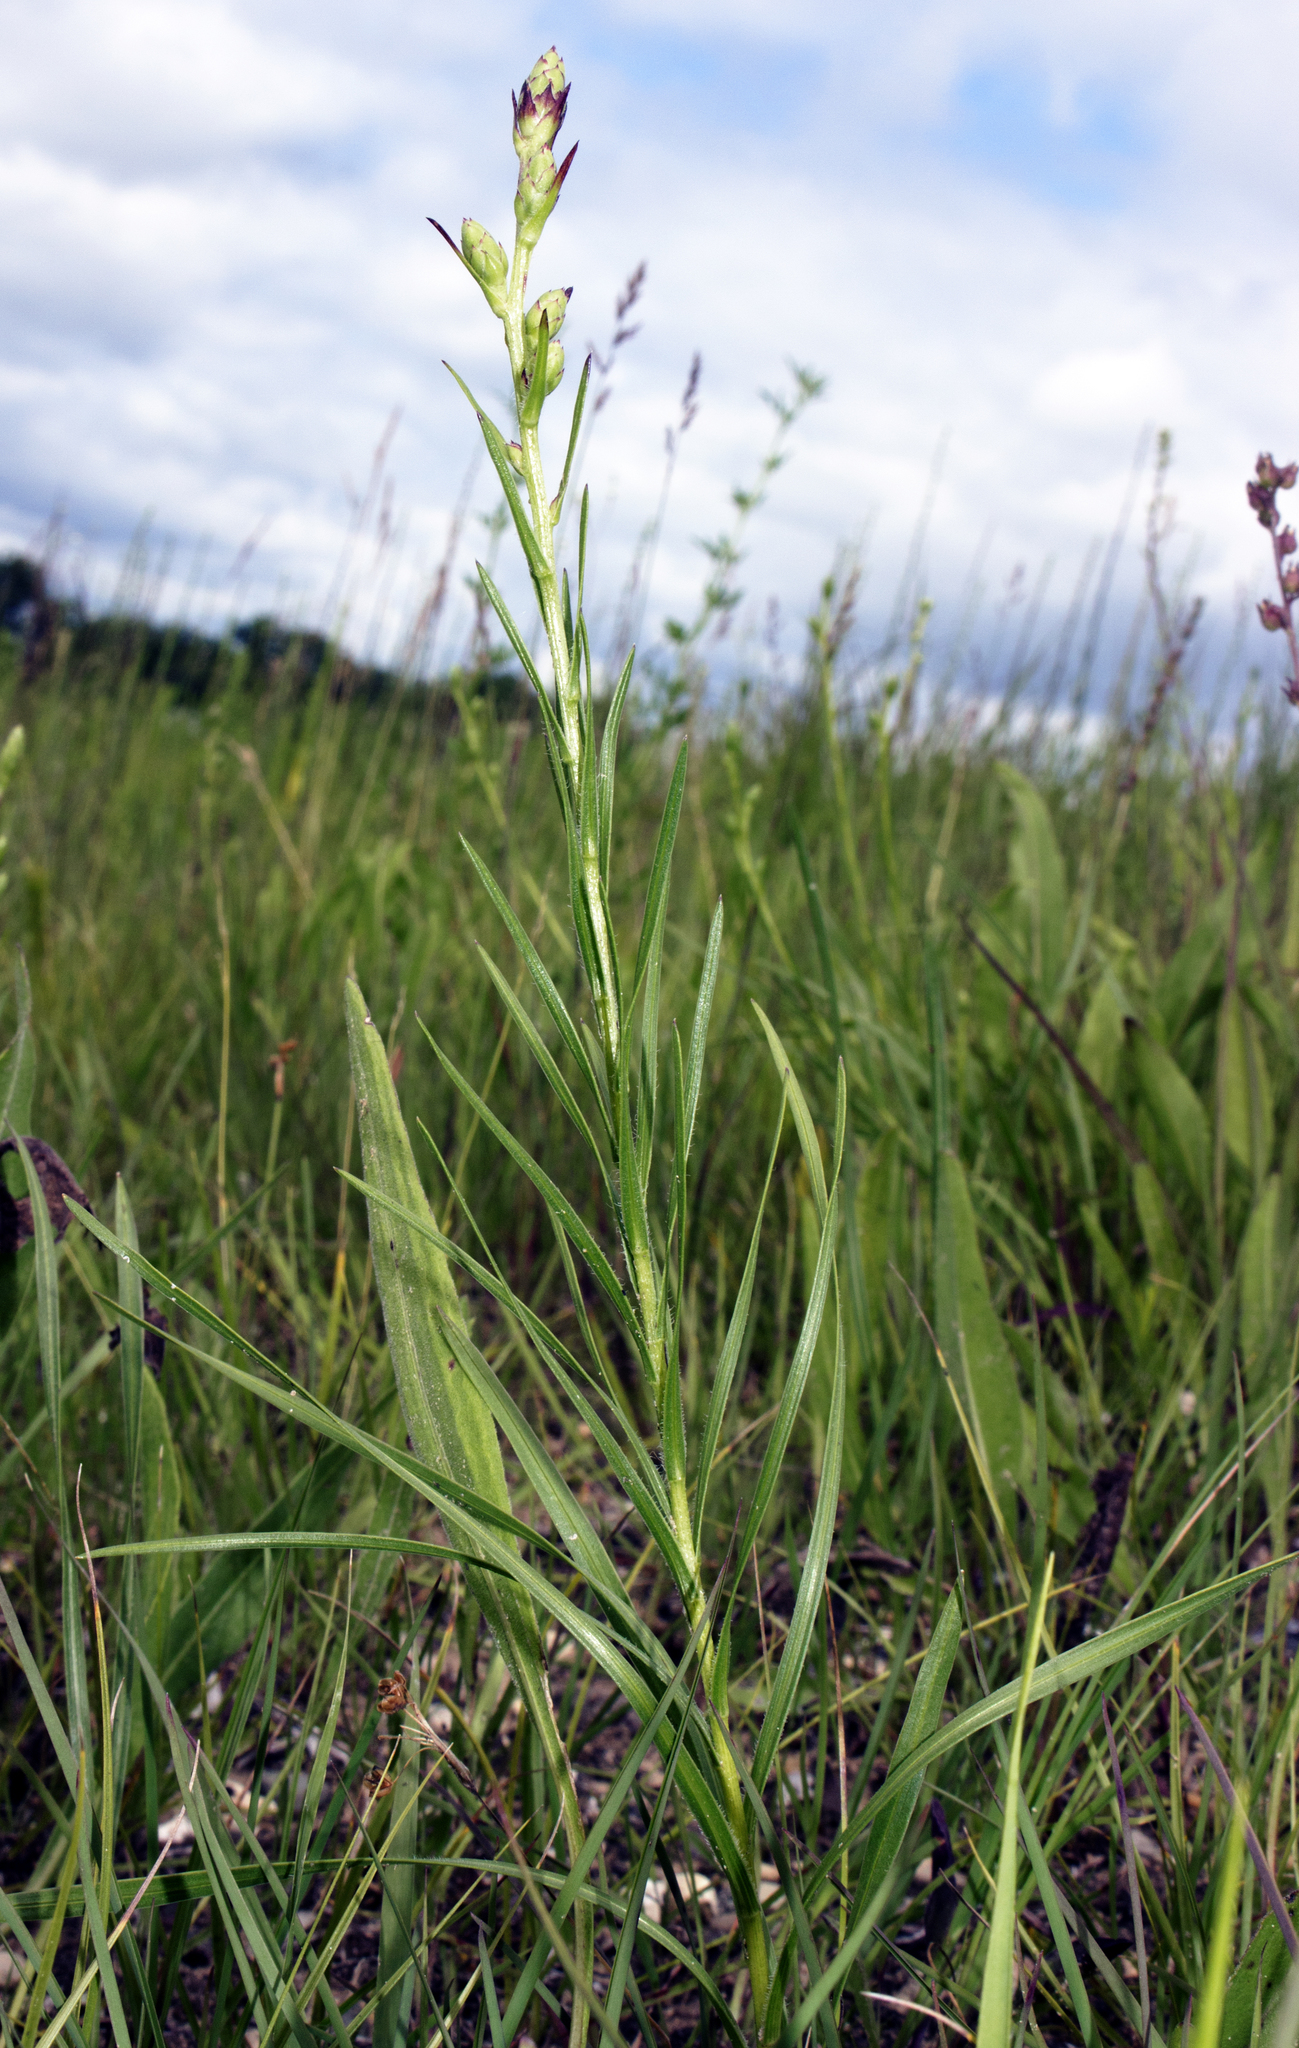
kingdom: Plantae
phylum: Tracheophyta
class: Magnoliopsida
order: Asterales
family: Asteraceae
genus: Liatris
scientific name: Liatris cylindracea
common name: Few-head blazingstar
